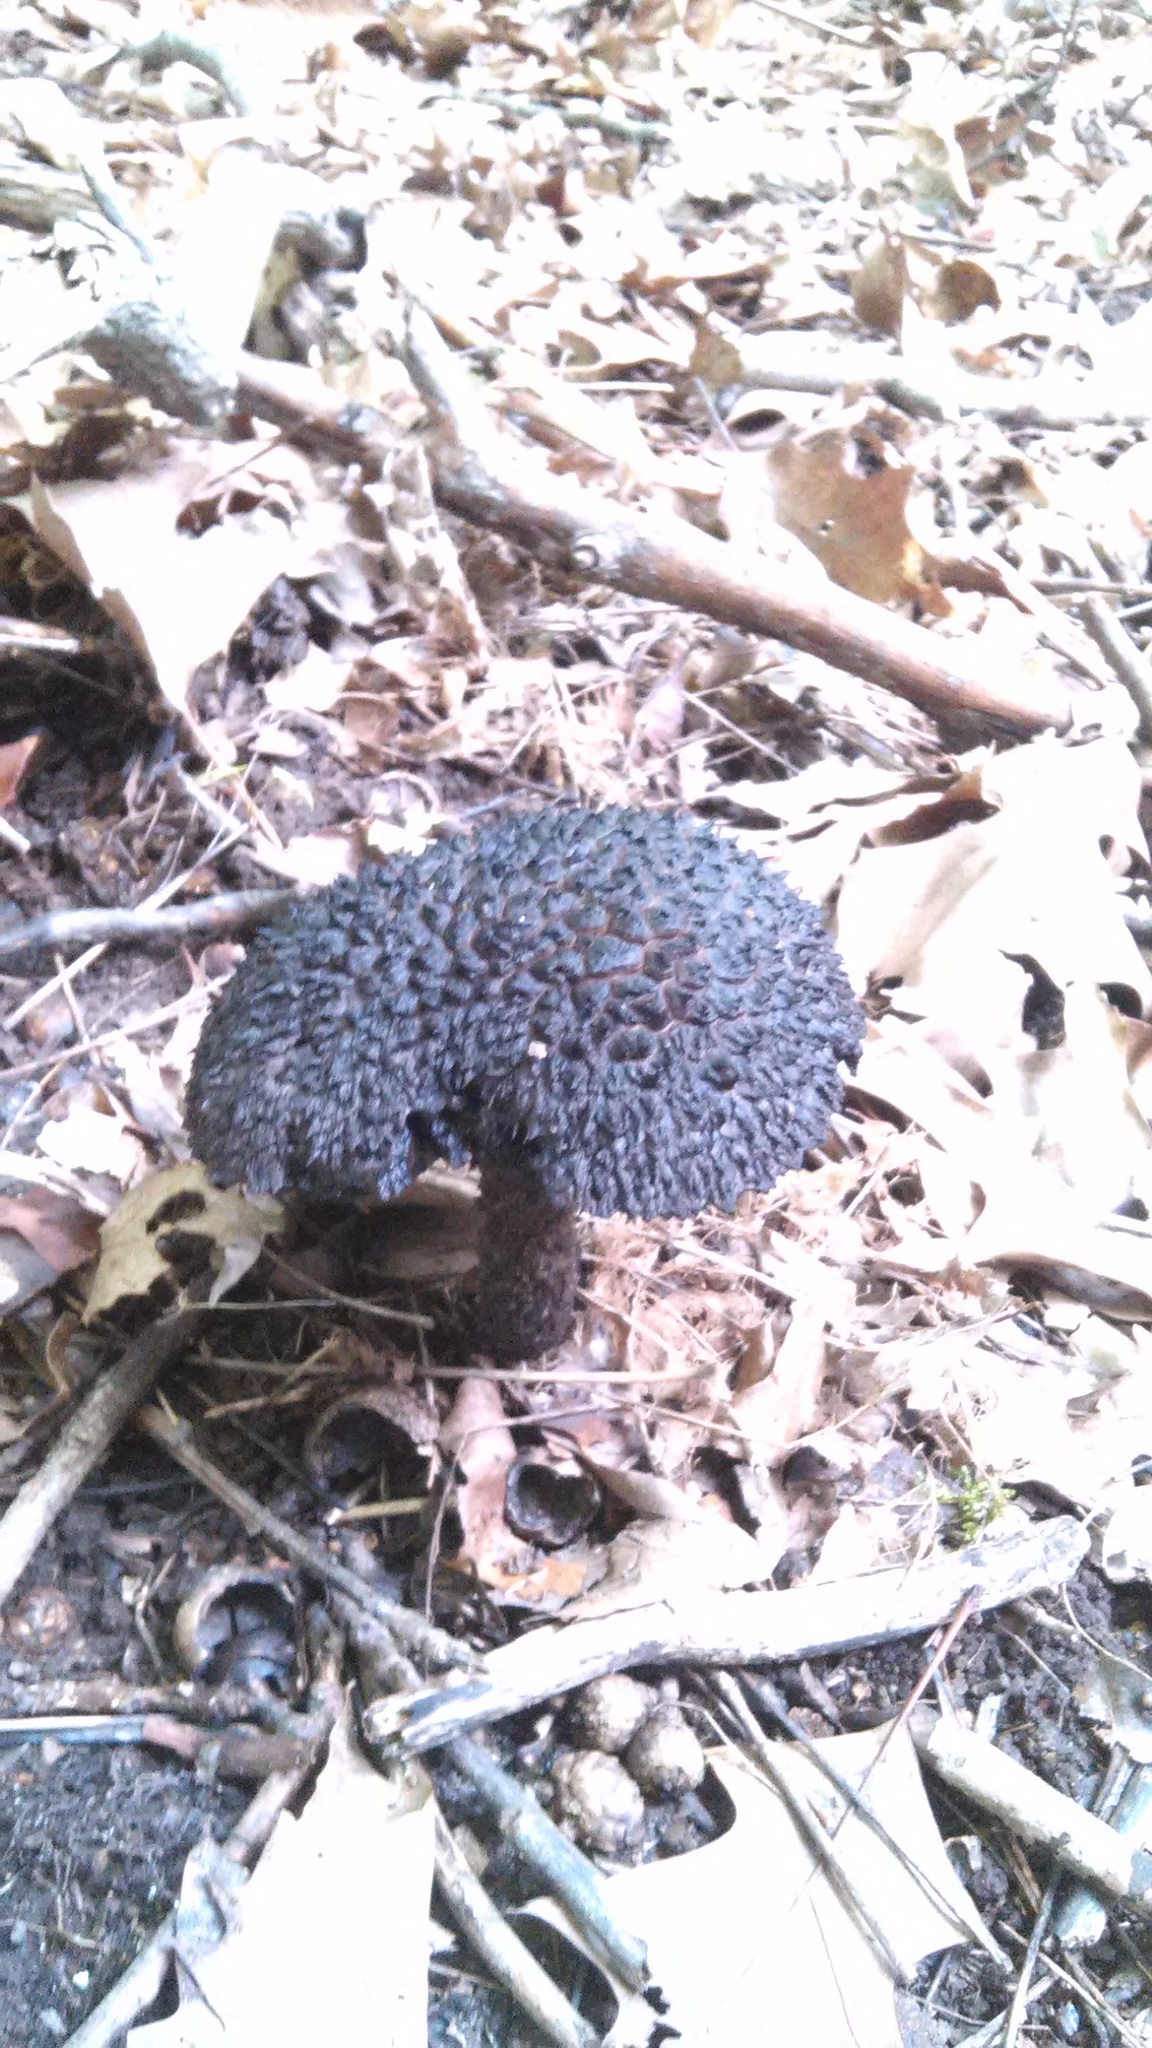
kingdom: Fungi
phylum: Basidiomycota
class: Agaricomycetes
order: Boletales
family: Boletaceae
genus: Strobilomyces
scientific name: Strobilomyces strobilaceus
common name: Old man of the woods
